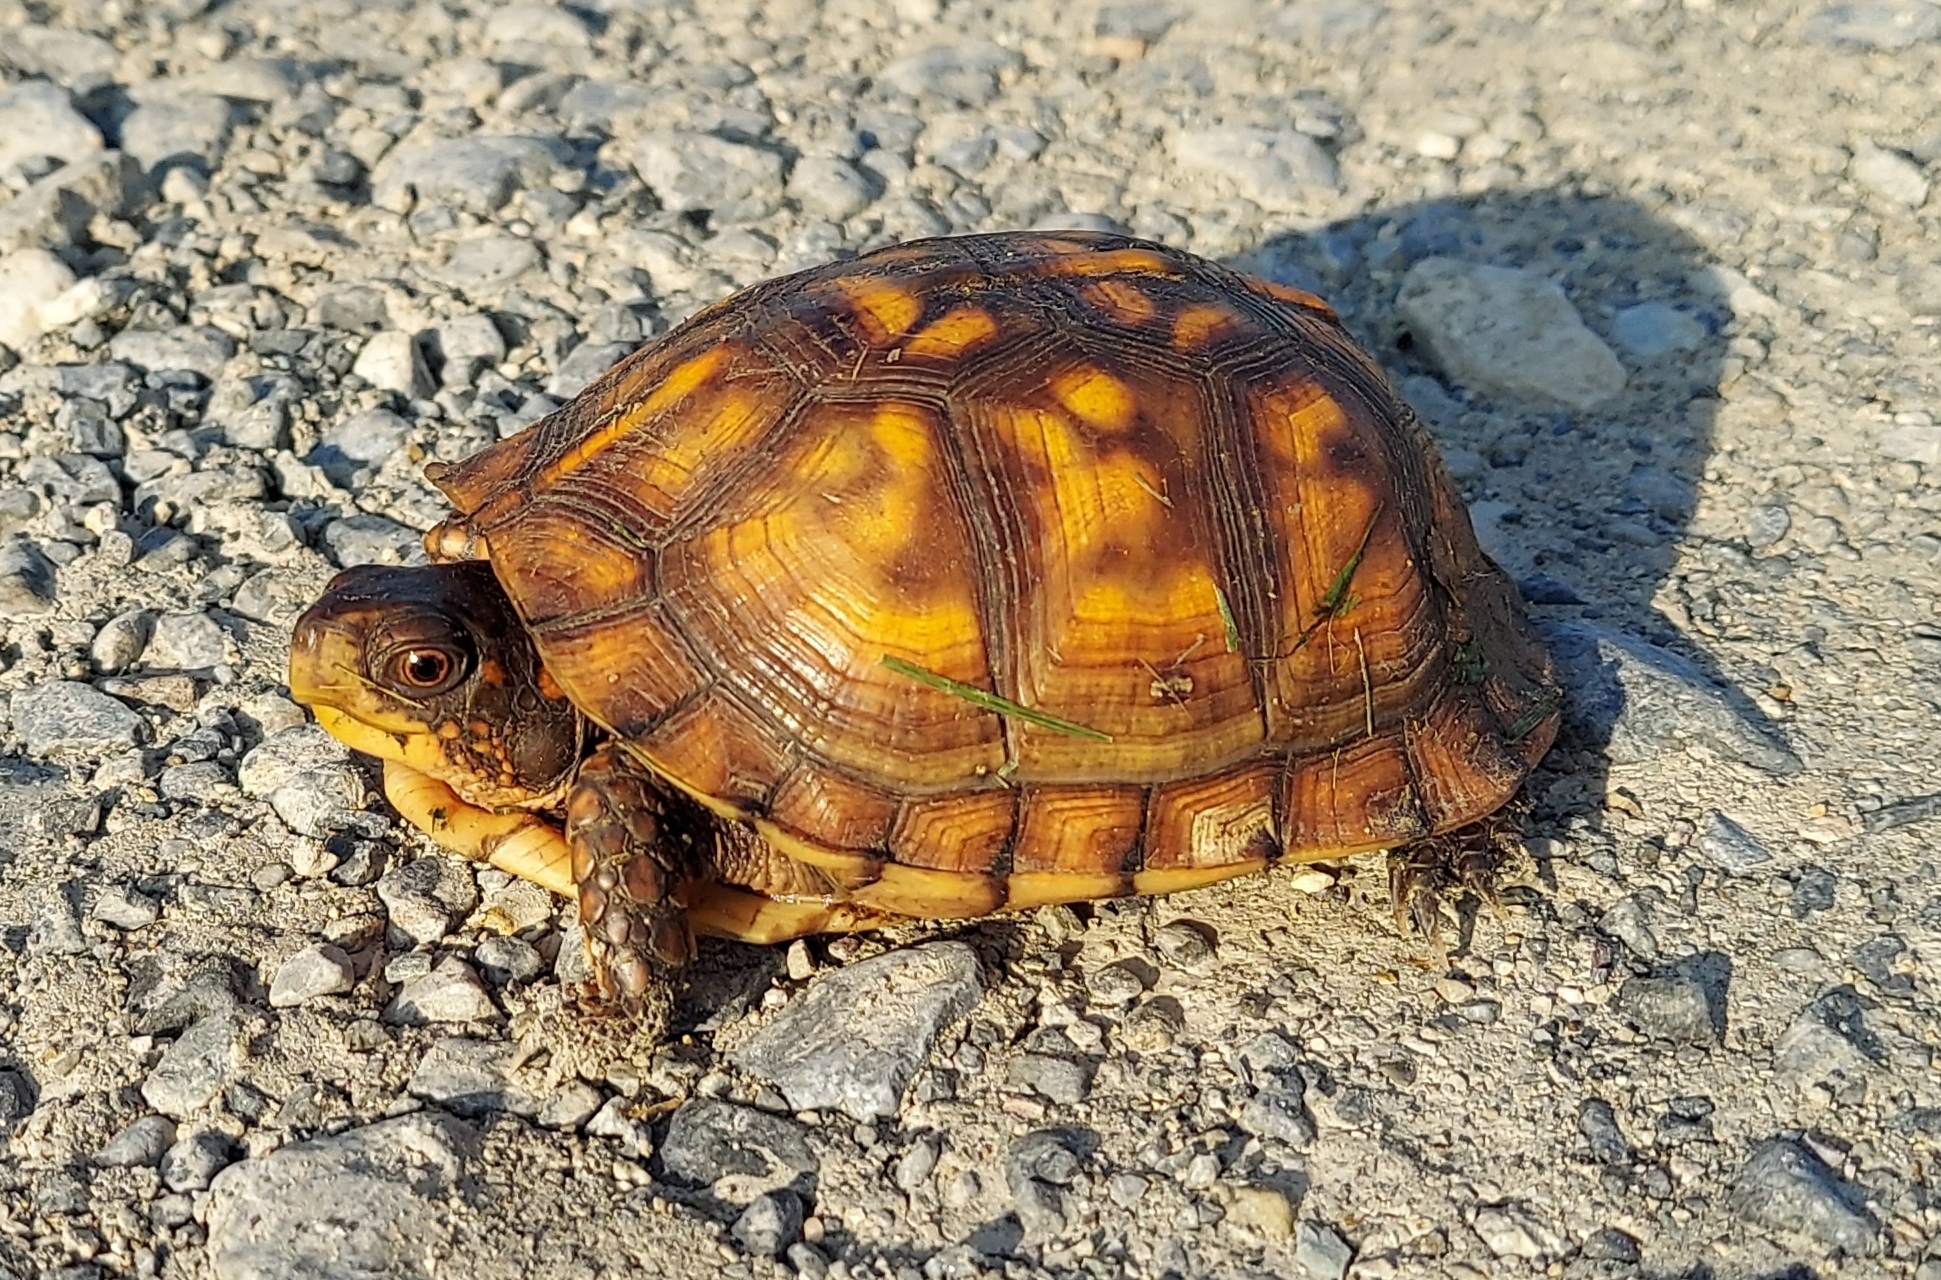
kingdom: Animalia
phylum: Chordata
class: Testudines
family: Emydidae
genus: Terrapene
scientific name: Terrapene carolina
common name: Common box turtle
